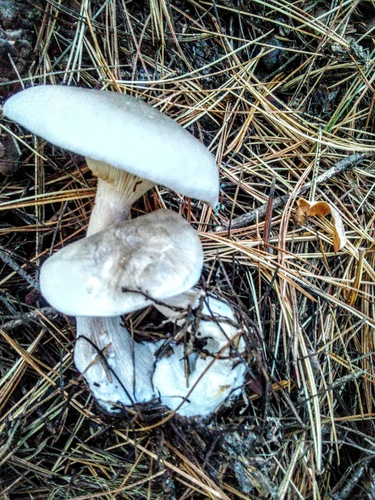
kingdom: Fungi
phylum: Basidiomycota
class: Agaricomycetes
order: Agaricales
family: Tricholomataceae
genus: Clitocybe
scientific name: Clitocybe nebularis
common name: Clouded agaric
